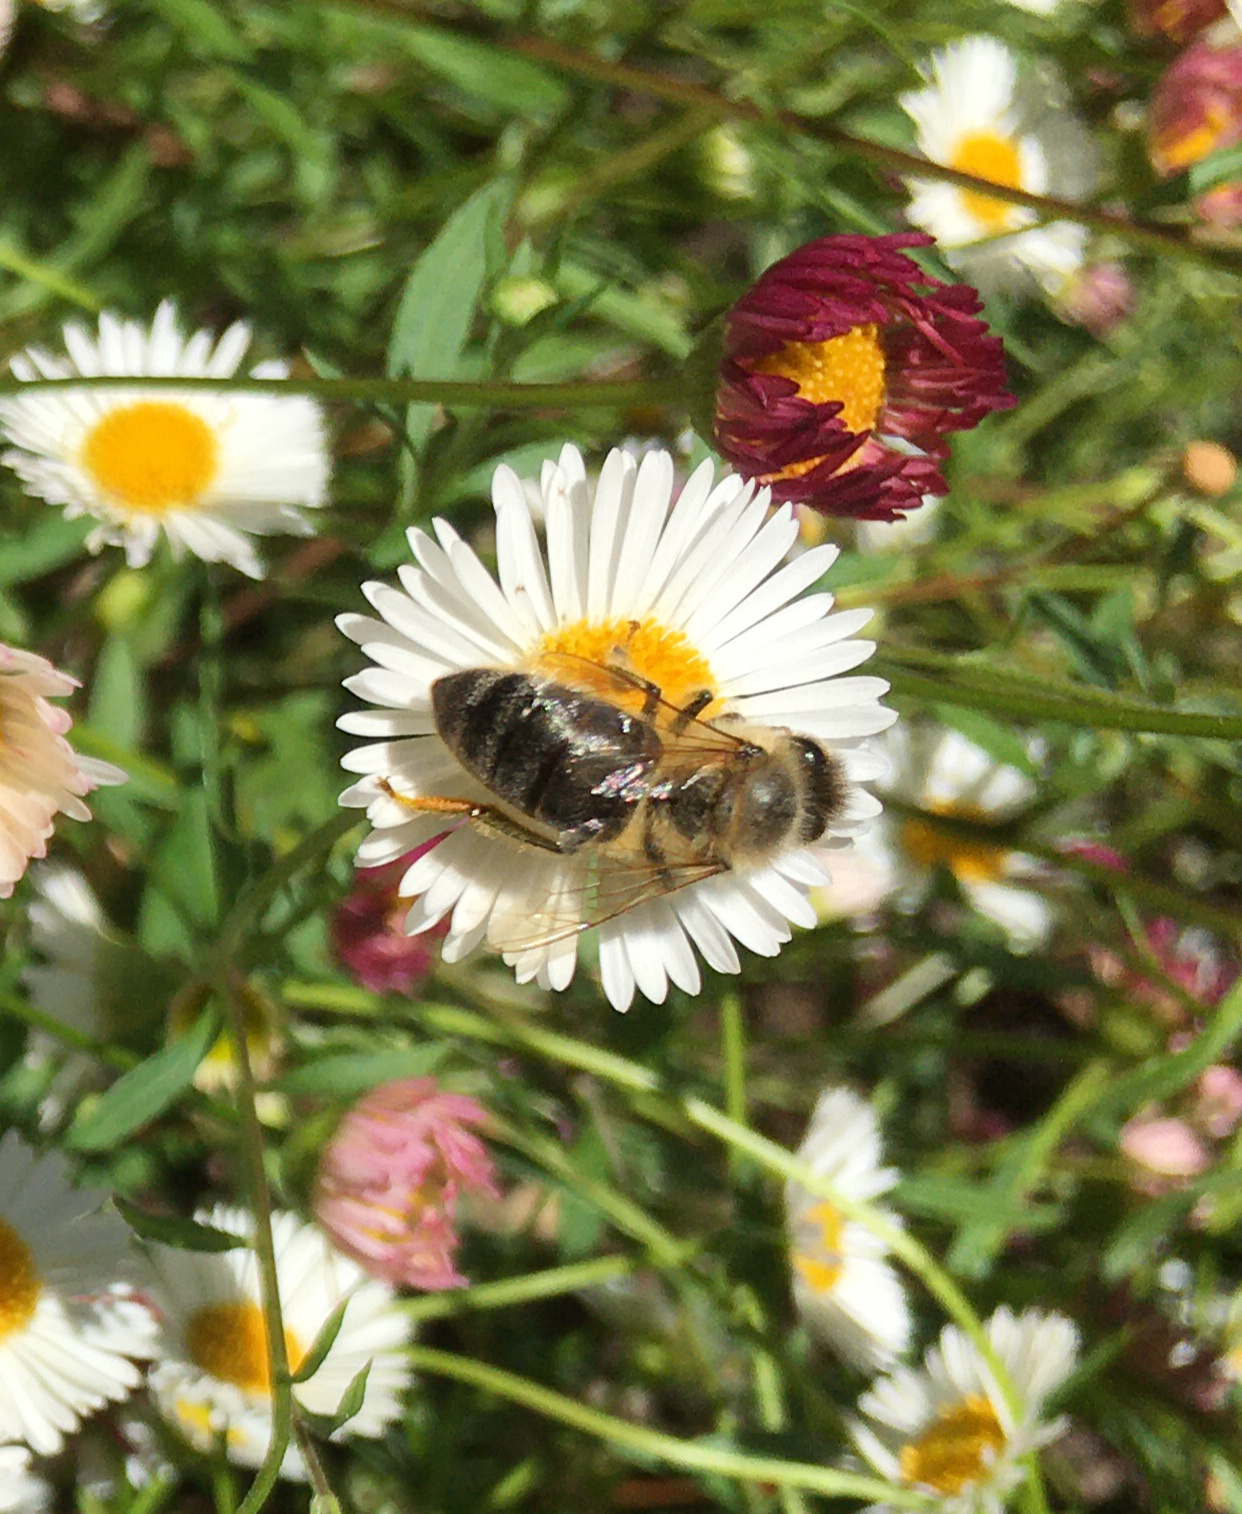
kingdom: Animalia
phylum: Arthropoda
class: Insecta
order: Hymenoptera
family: Apidae
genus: Apis
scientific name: Apis mellifera
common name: Honey bee
